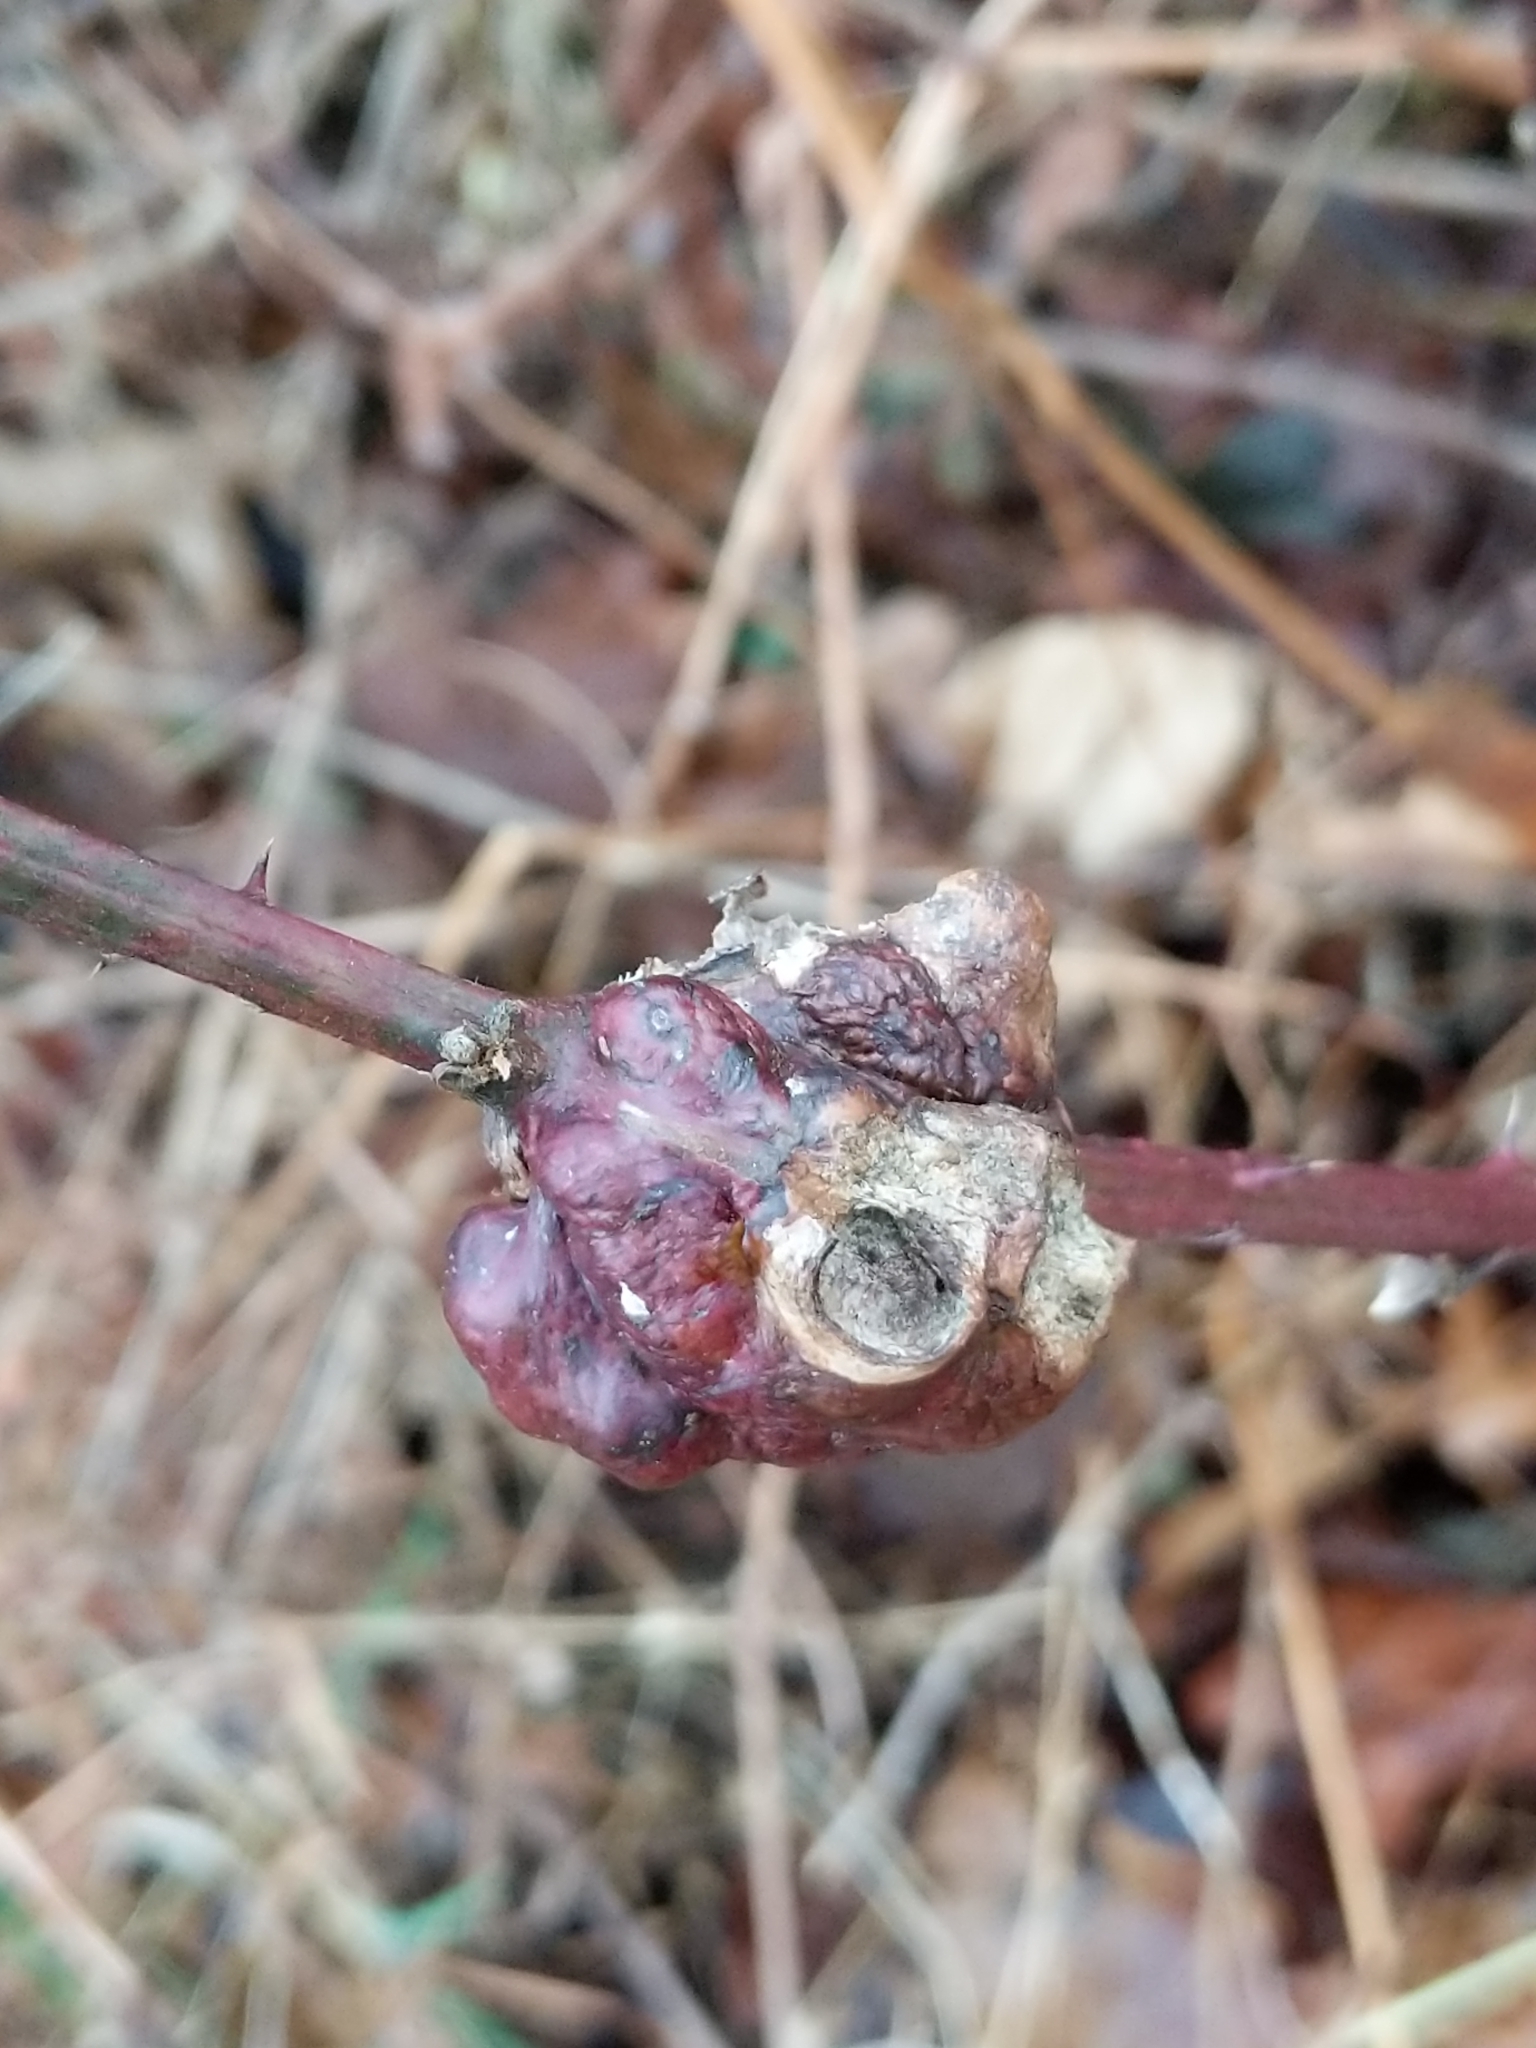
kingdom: Animalia
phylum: Arthropoda
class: Insecta
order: Hymenoptera
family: Cynipidae
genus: Diastrophus
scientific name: Diastrophus
